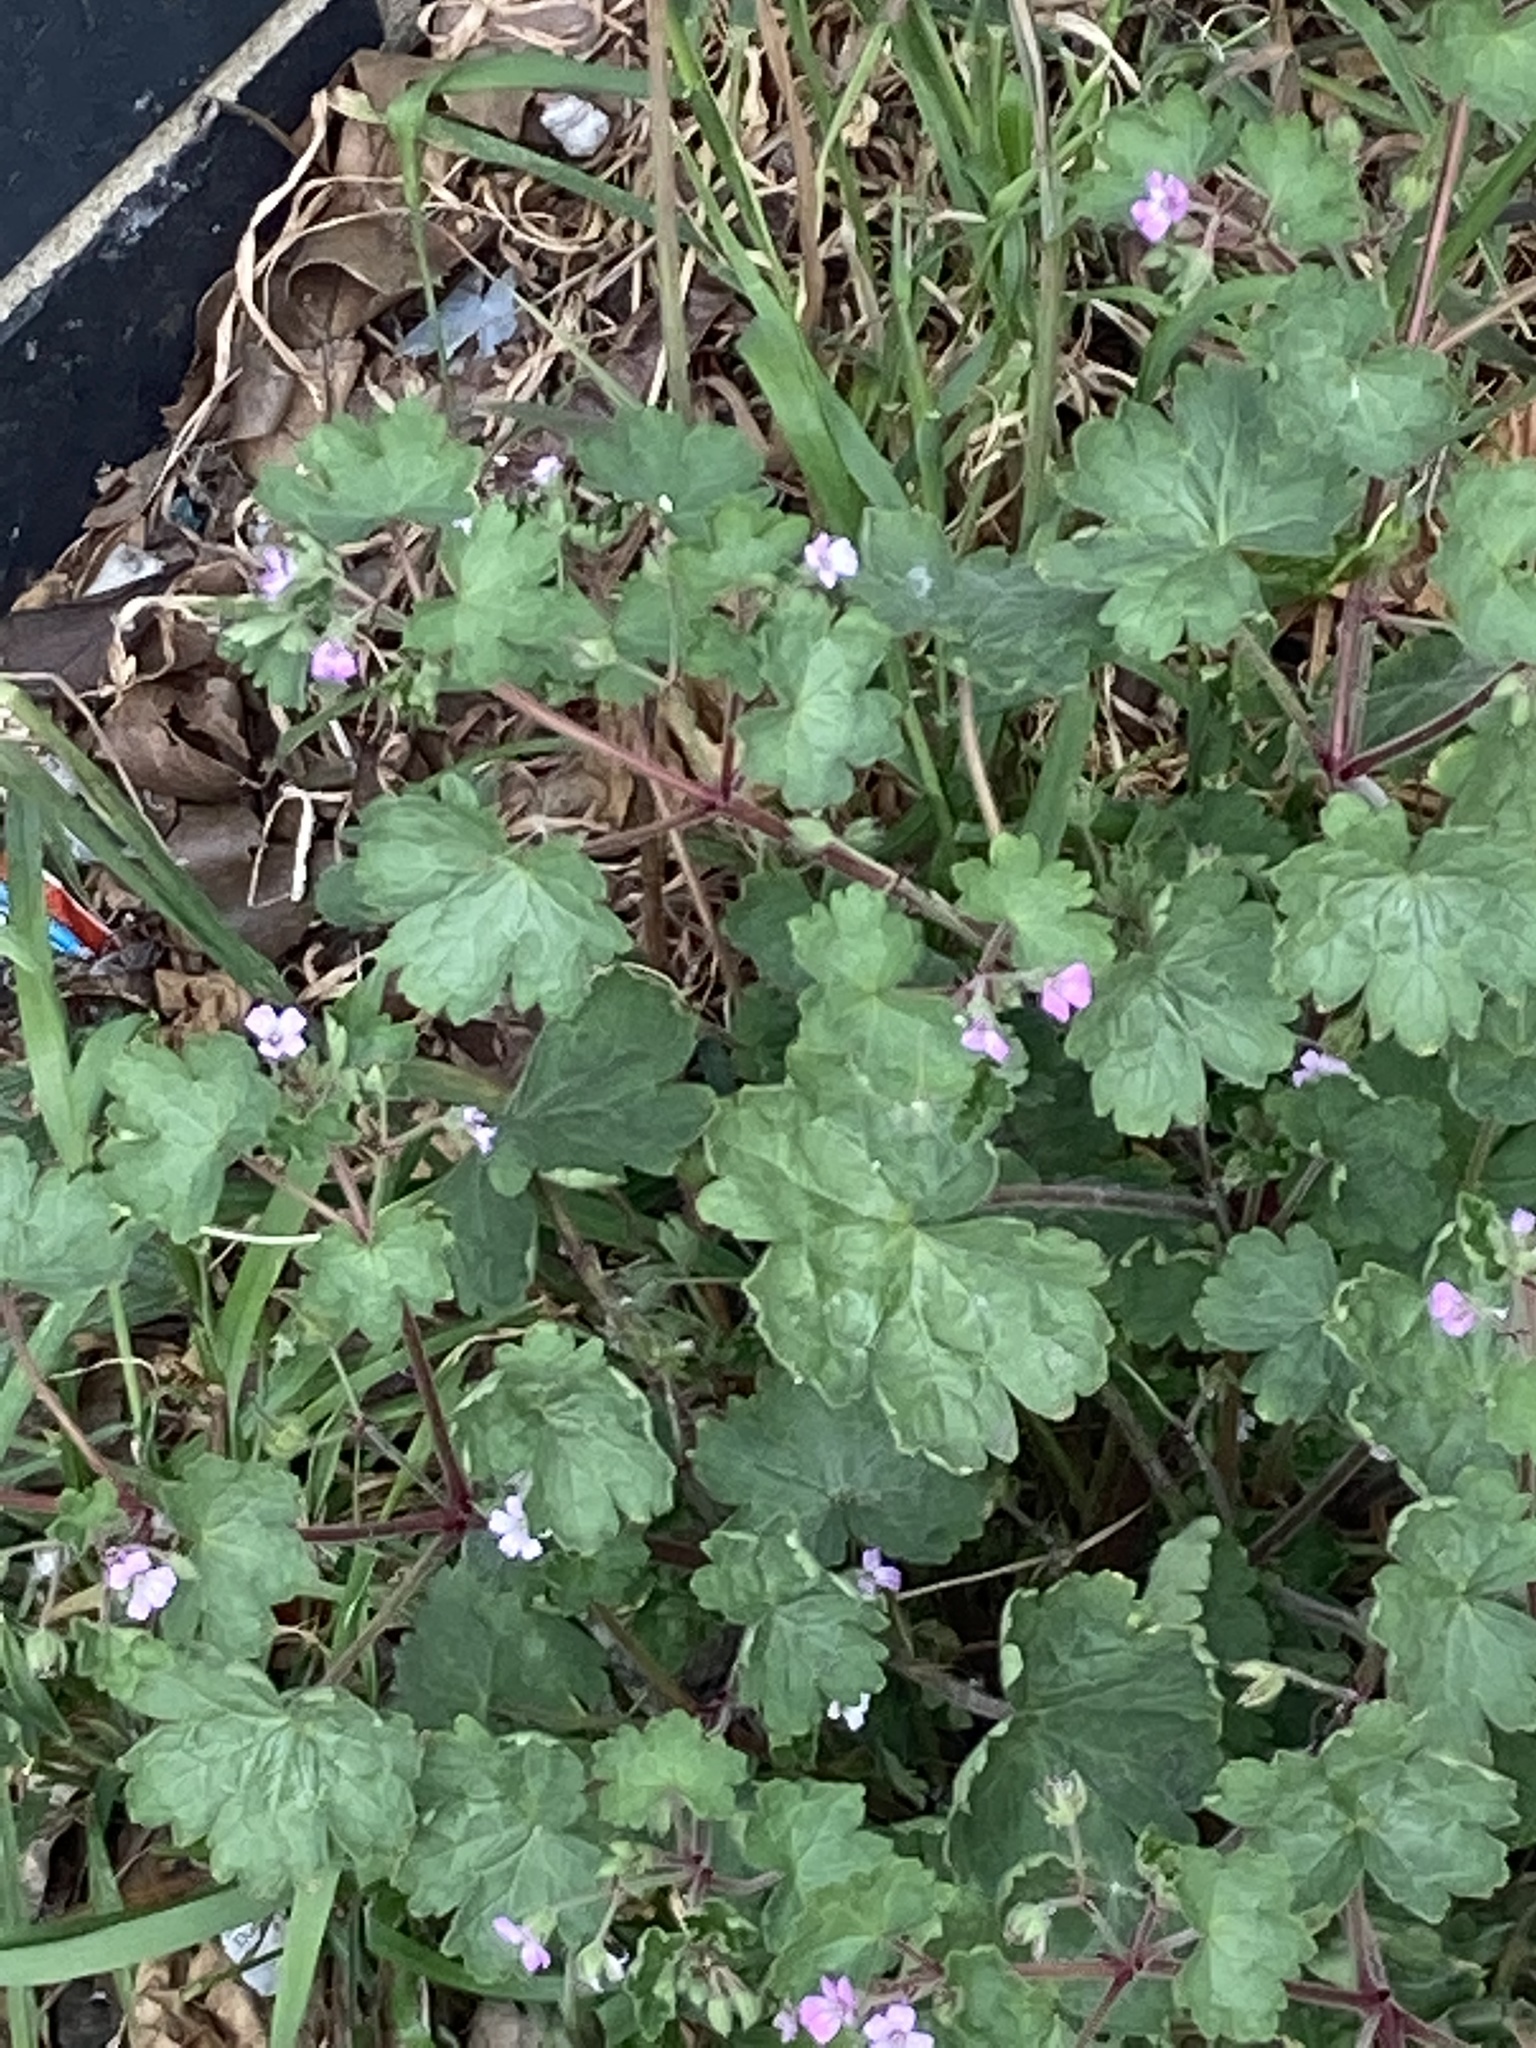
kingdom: Plantae
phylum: Tracheophyta
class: Magnoliopsida
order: Geraniales
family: Geraniaceae
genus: Geranium
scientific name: Geranium rotundifolium
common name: Round-leaved crane's-bill
